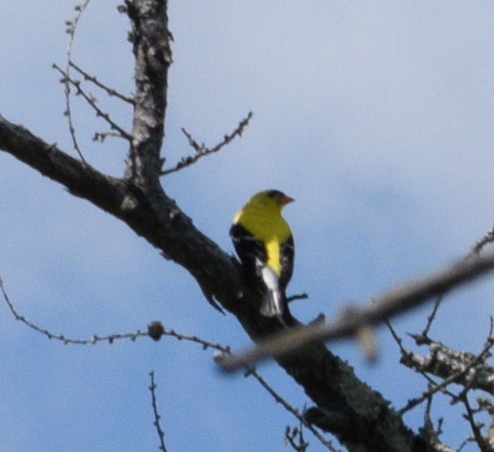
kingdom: Animalia
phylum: Chordata
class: Aves
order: Passeriformes
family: Fringillidae
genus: Spinus
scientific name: Spinus tristis
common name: American goldfinch
